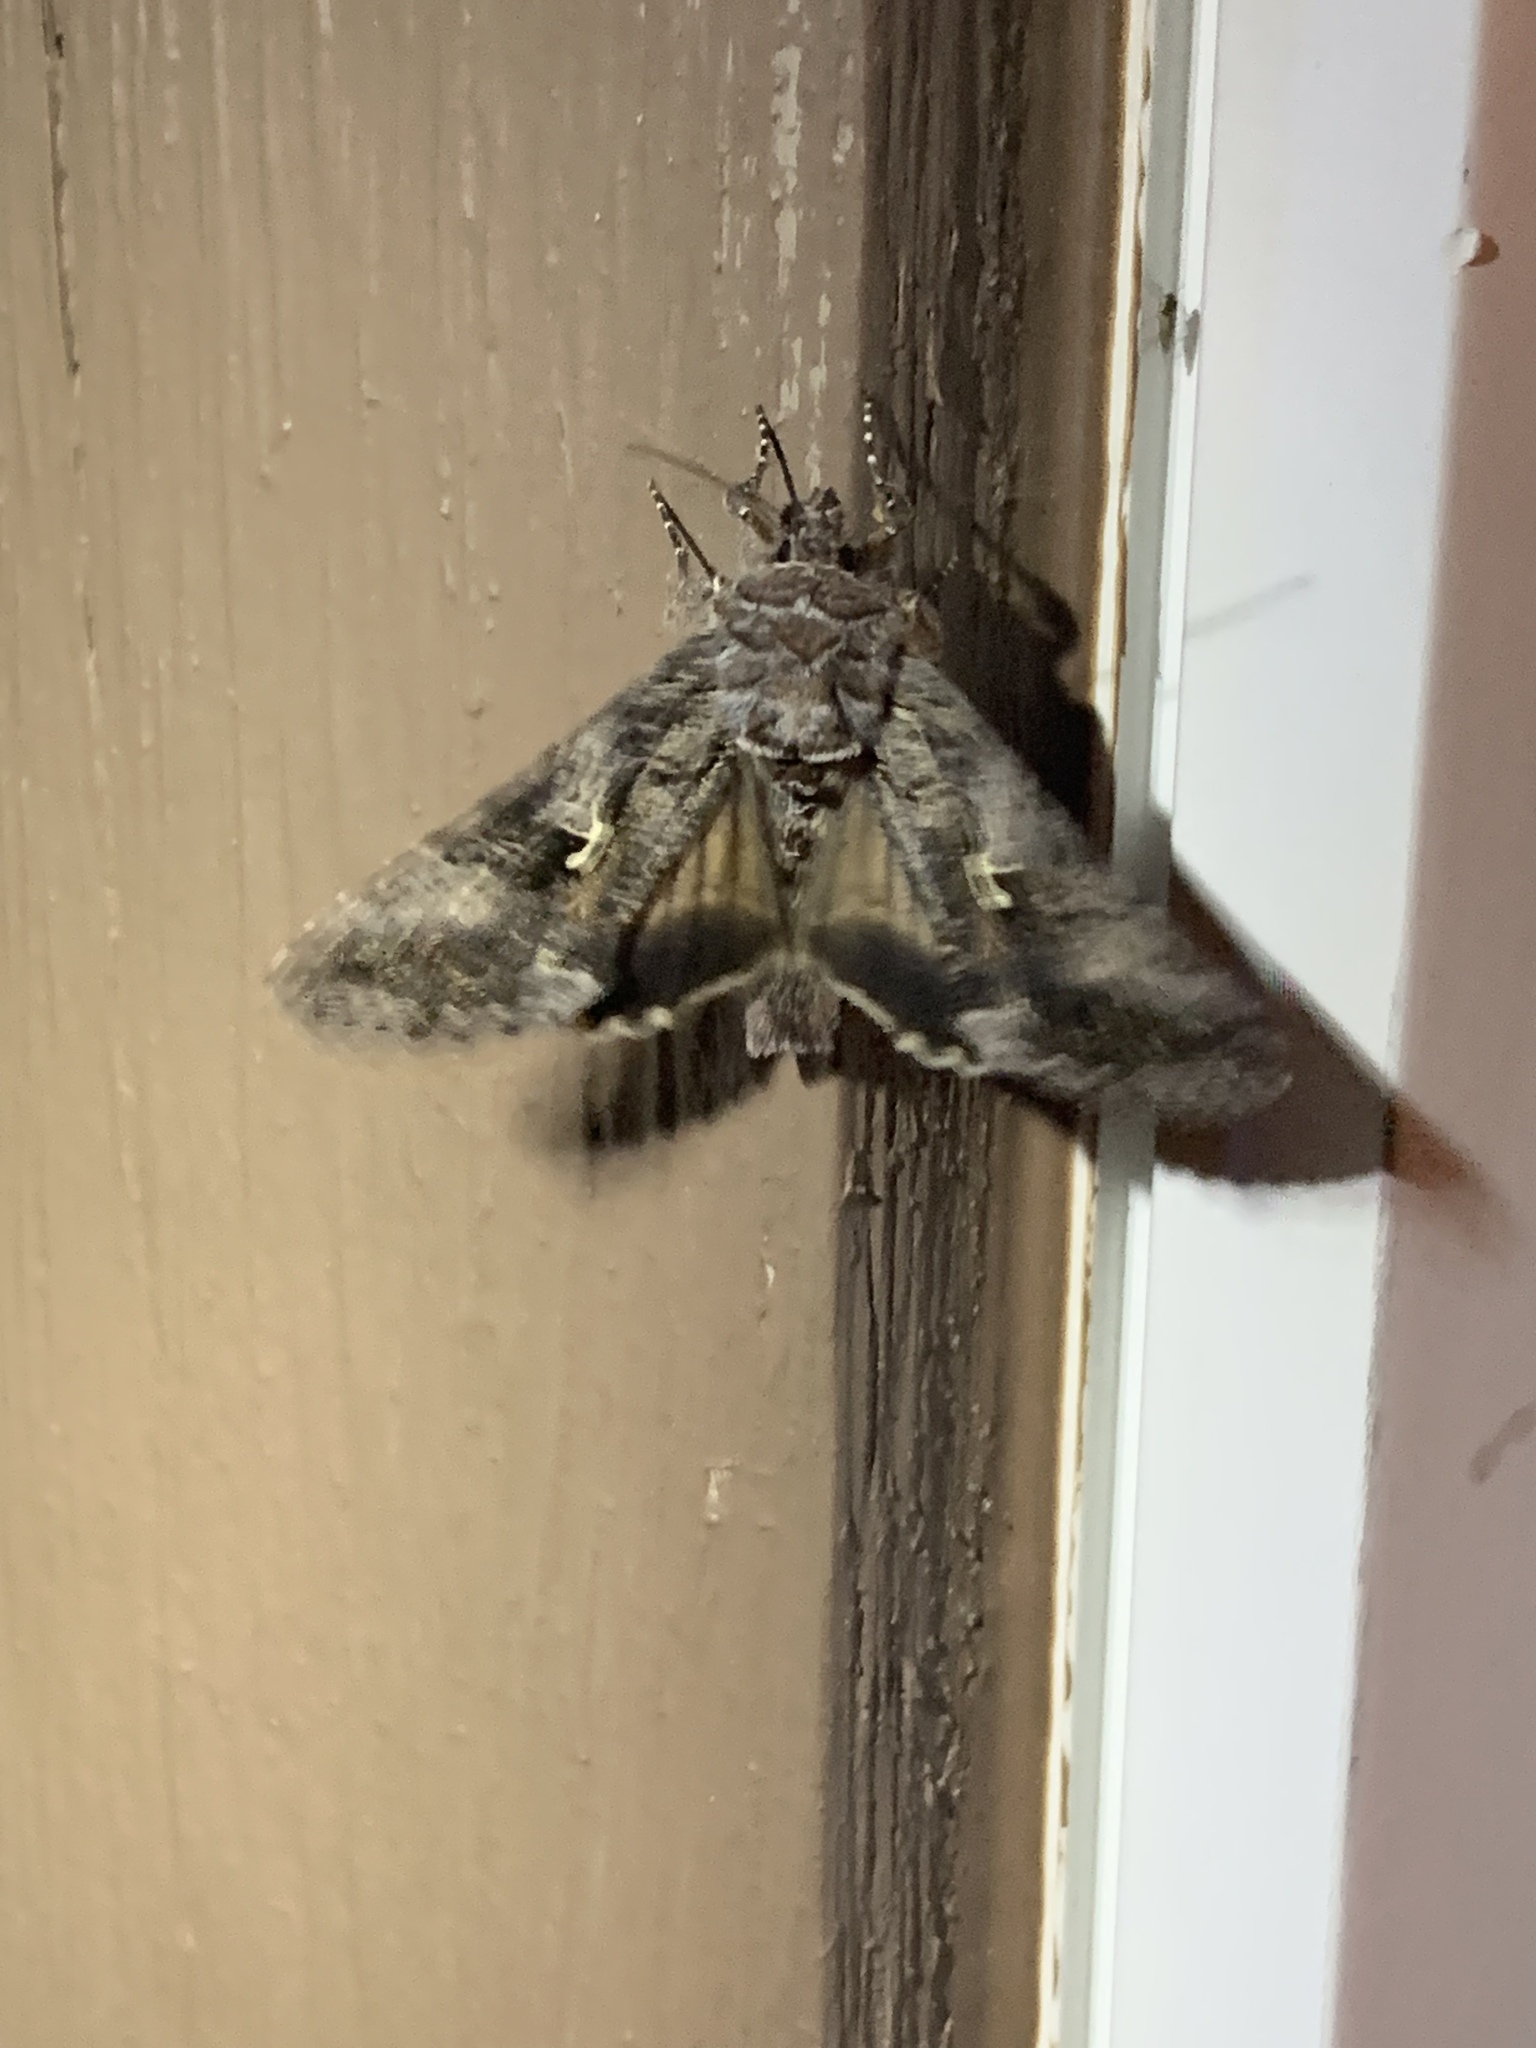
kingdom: Animalia
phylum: Arthropoda
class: Insecta
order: Lepidoptera
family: Noctuidae
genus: Autographa
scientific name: Autographa californica
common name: Alfalfa looper
